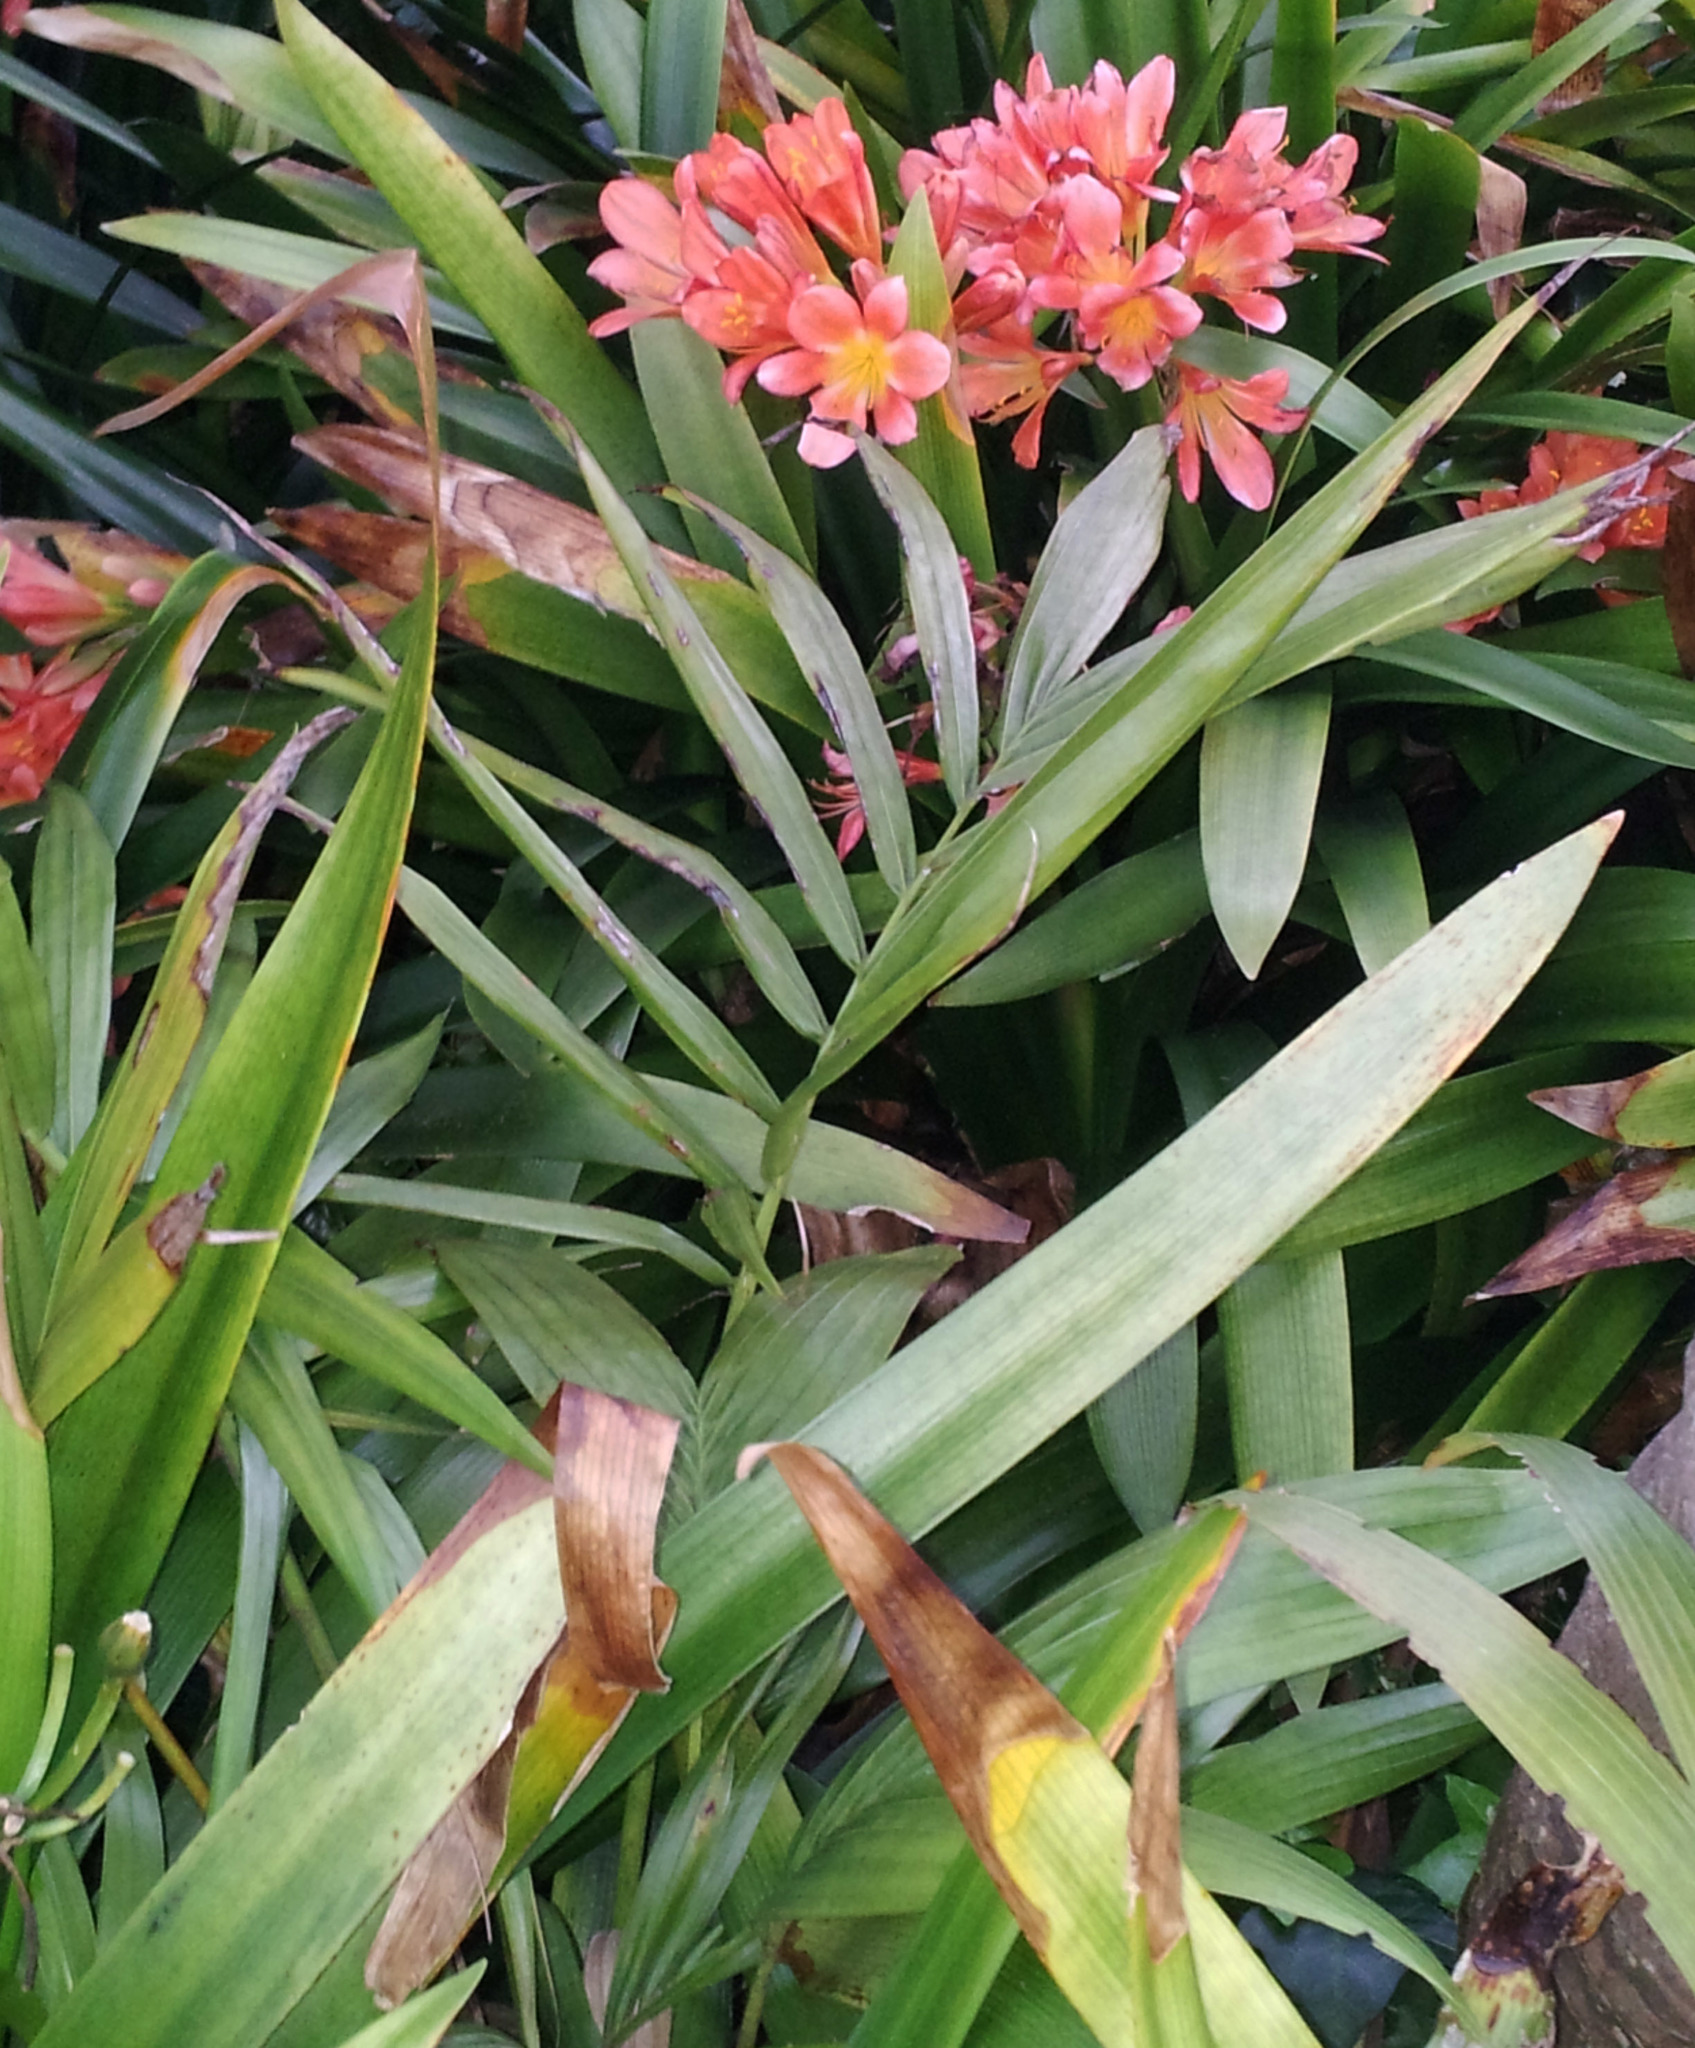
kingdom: Plantae
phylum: Tracheophyta
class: Liliopsida
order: Arecales
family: Arecaceae
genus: Howea
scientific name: Howea belmoreana
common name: Curly palm
